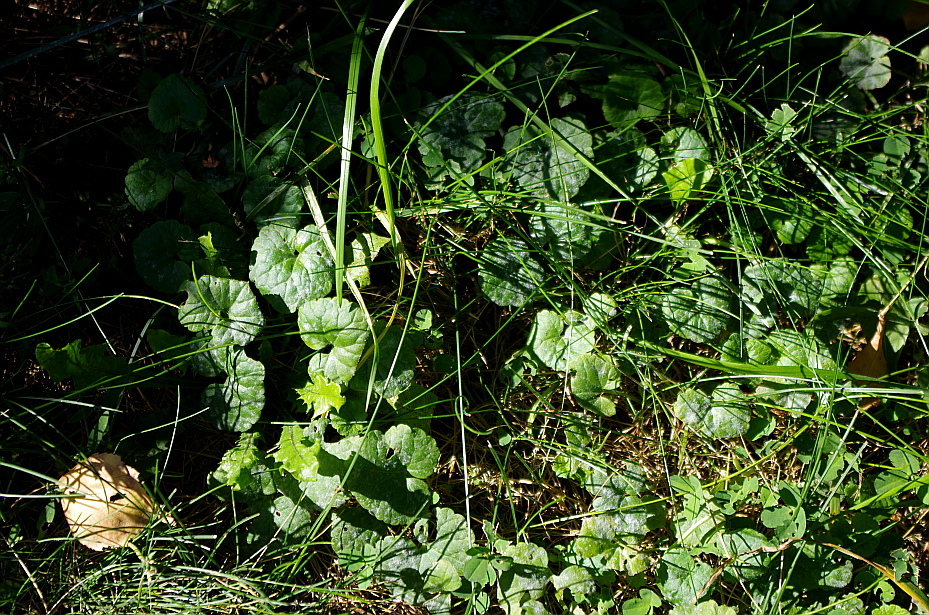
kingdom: Plantae
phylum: Tracheophyta
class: Magnoliopsida
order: Lamiales
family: Lamiaceae
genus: Glechoma
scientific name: Glechoma hederacea
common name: Ground ivy
